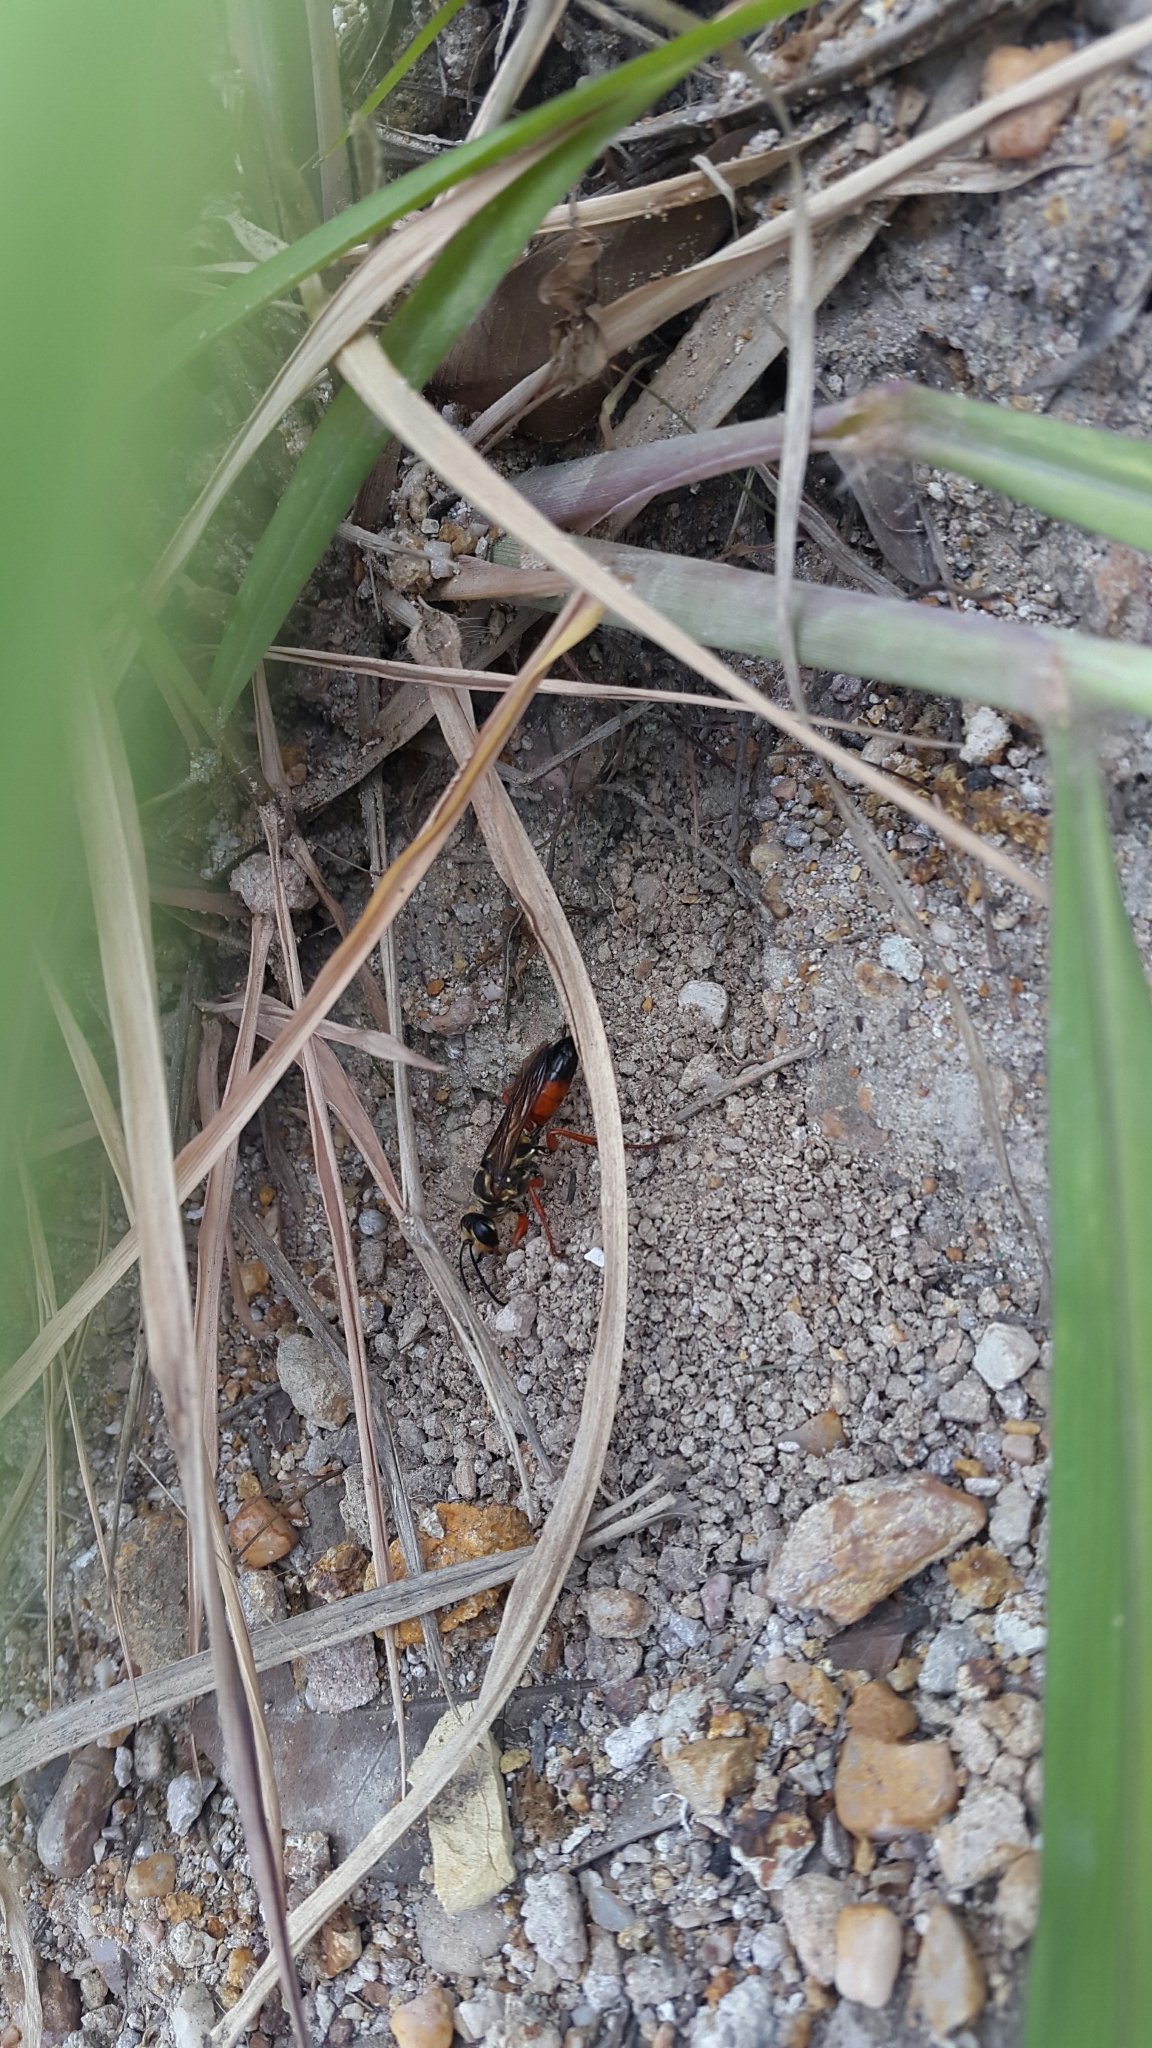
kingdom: Animalia
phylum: Arthropoda
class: Insecta
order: Hymenoptera
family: Sphecidae
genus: Sphex
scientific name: Sphex ichneumoneus
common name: Great golden digger wasp
